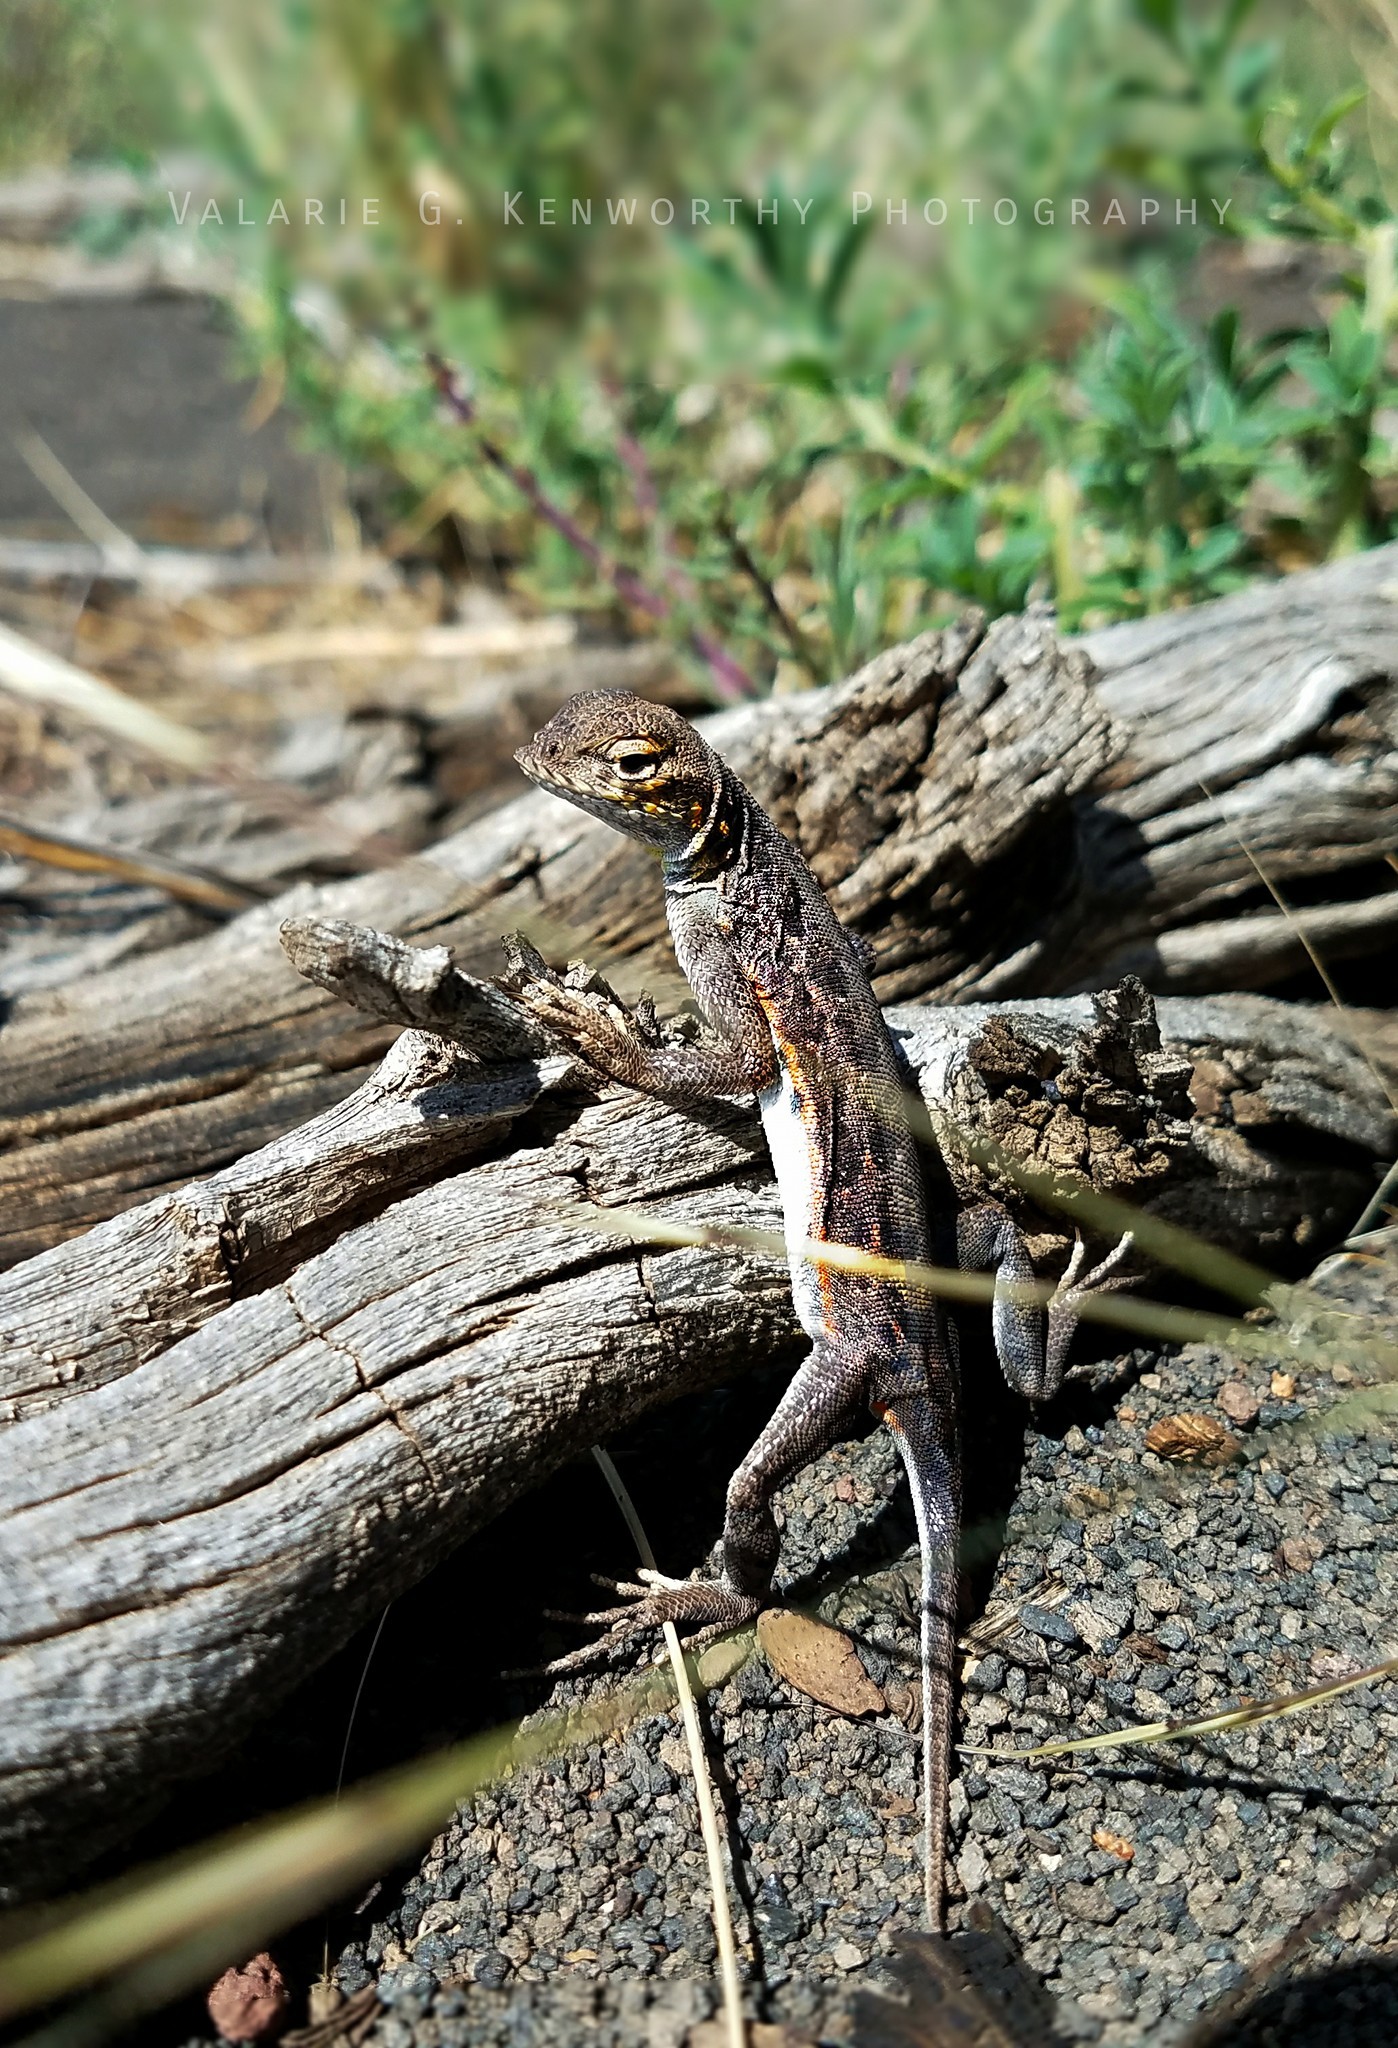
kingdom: Animalia
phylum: Chordata
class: Squamata
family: Phrynosomatidae
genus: Holbrookia
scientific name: Holbrookia maculata
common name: Lesser earless lizard
